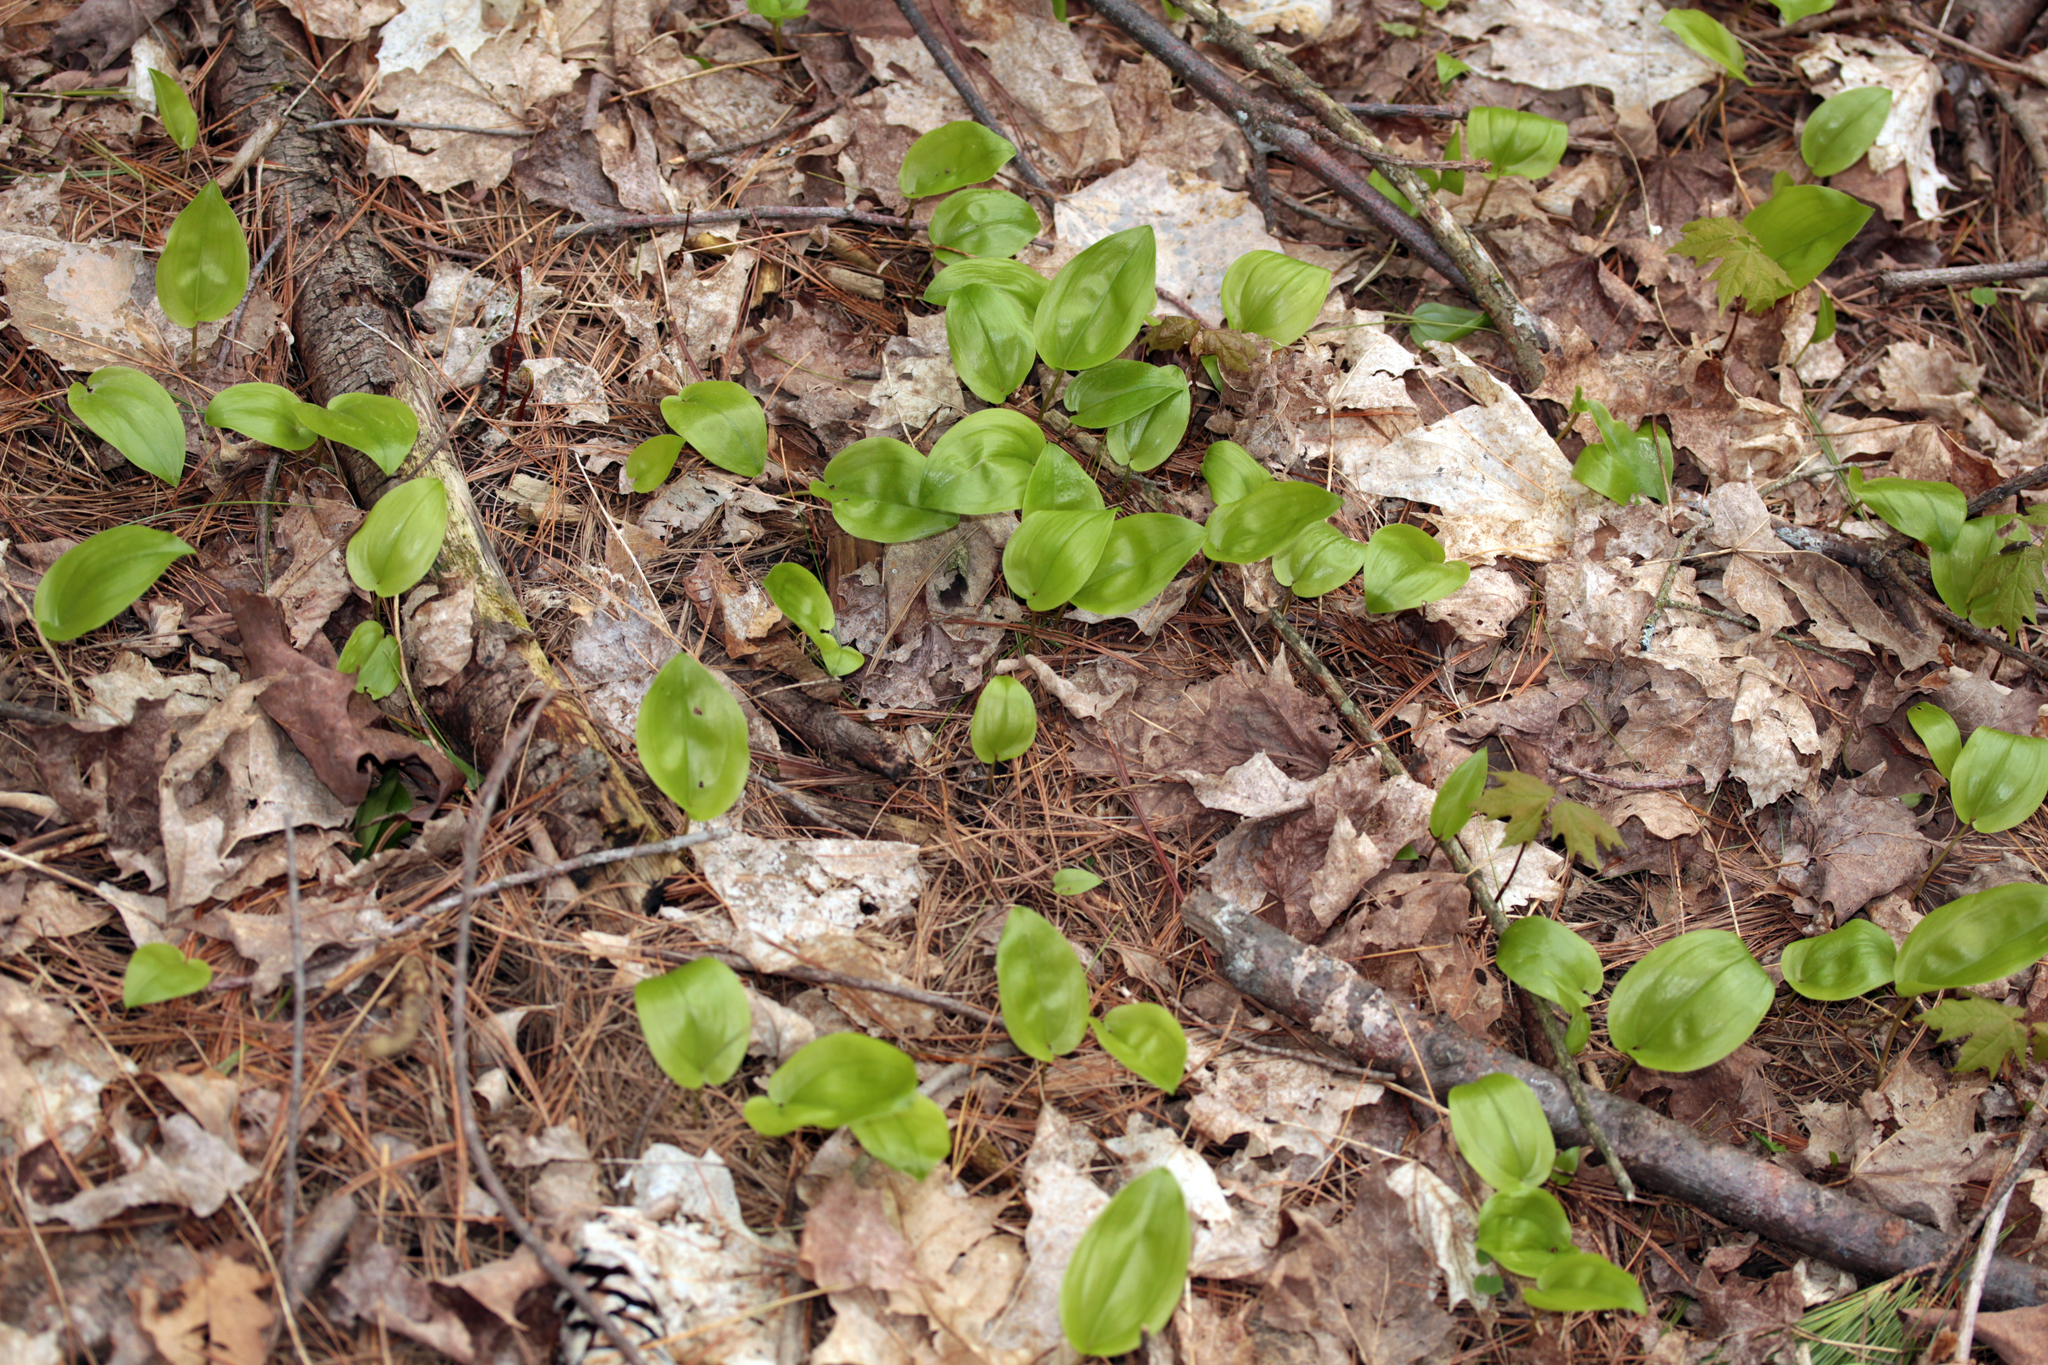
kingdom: Plantae
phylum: Tracheophyta
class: Liliopsida
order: Asparagales
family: Asparagaceae
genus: Maianthemum
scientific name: Maianthemum canadense
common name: False lily-of-the-valley
